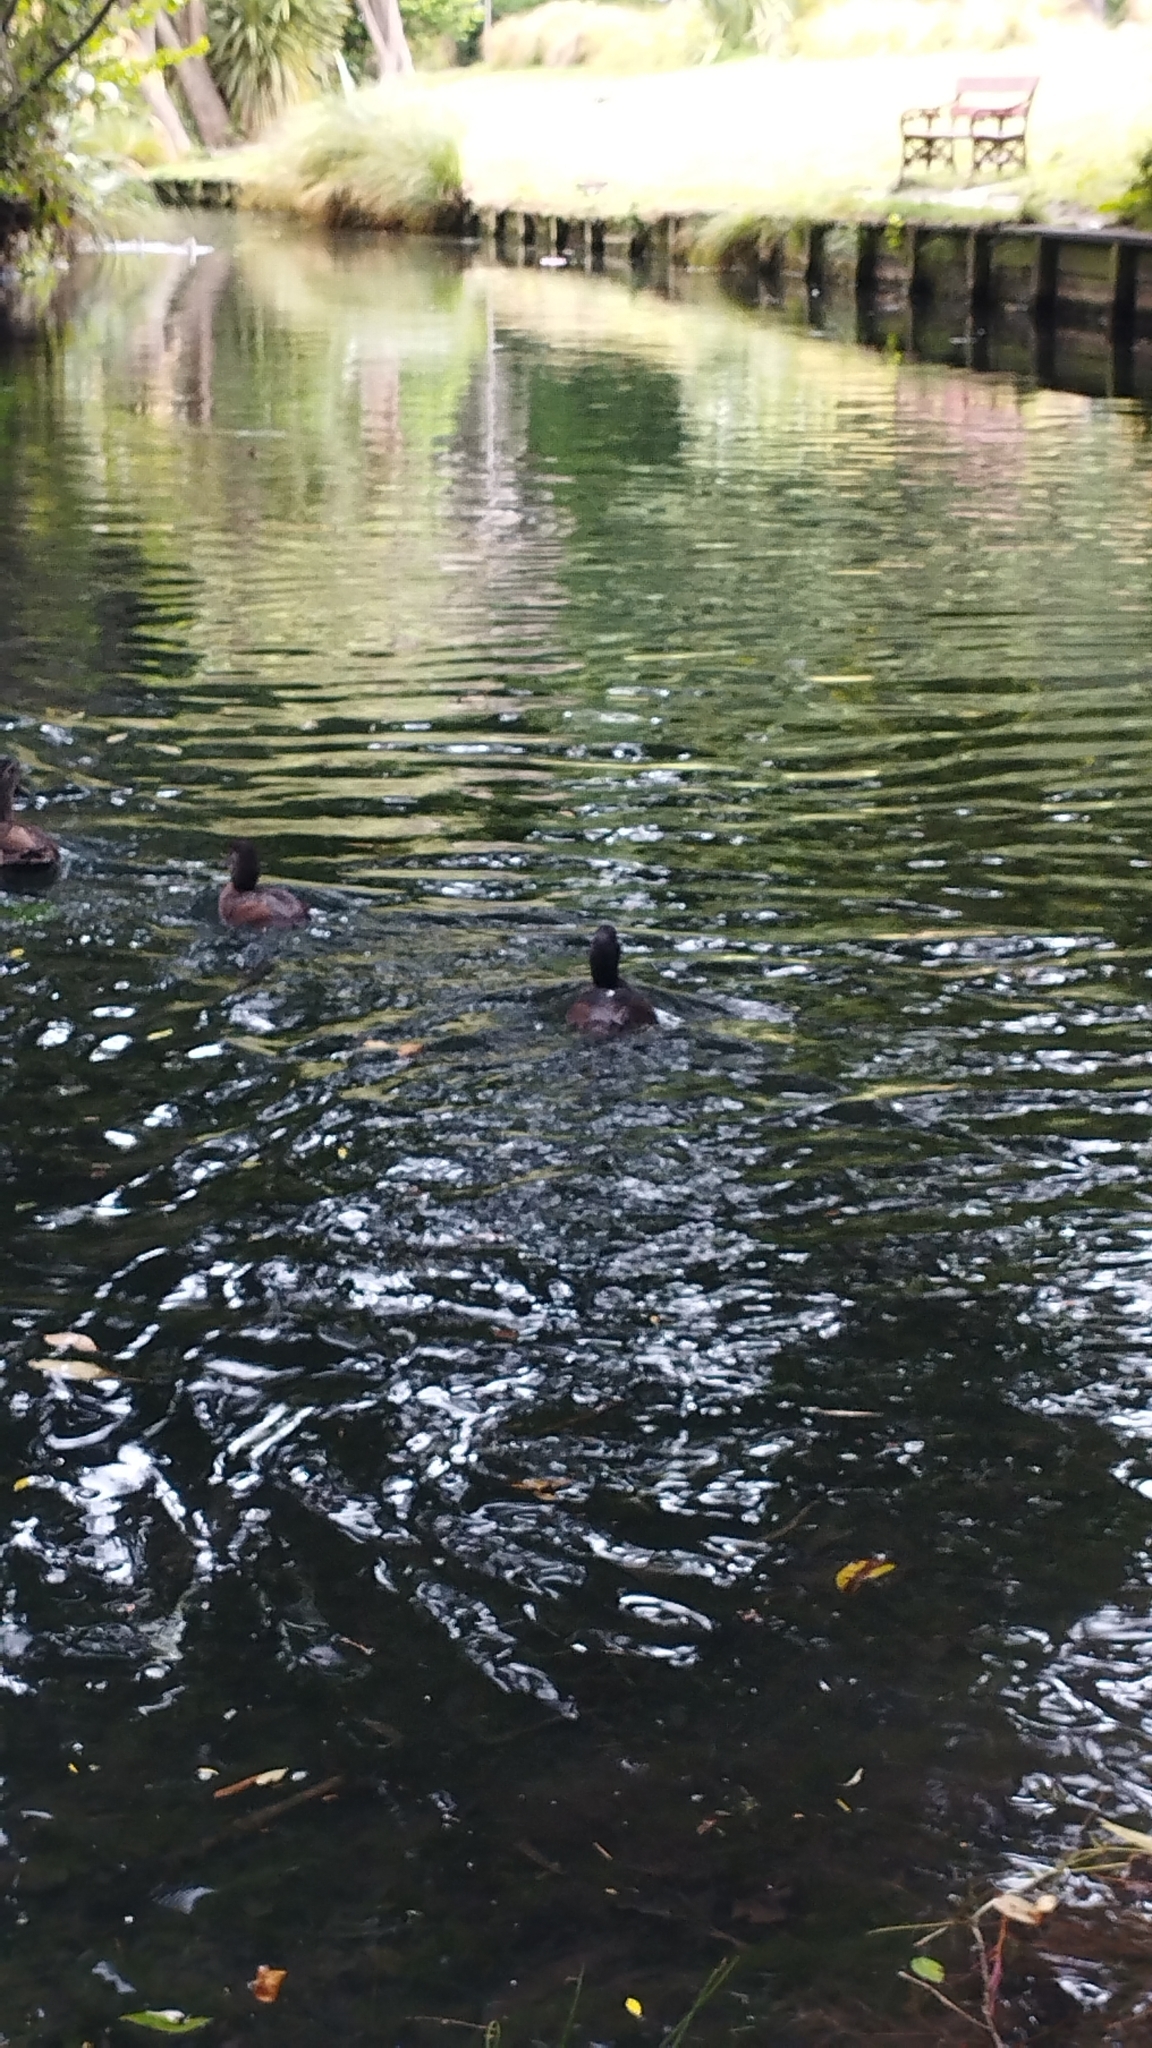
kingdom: Animalia
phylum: Chordata
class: Aves
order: Anseriformes
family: Anatidae
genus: Aythya
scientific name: Aythya novaeseelandiae
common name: New zealand scaup
